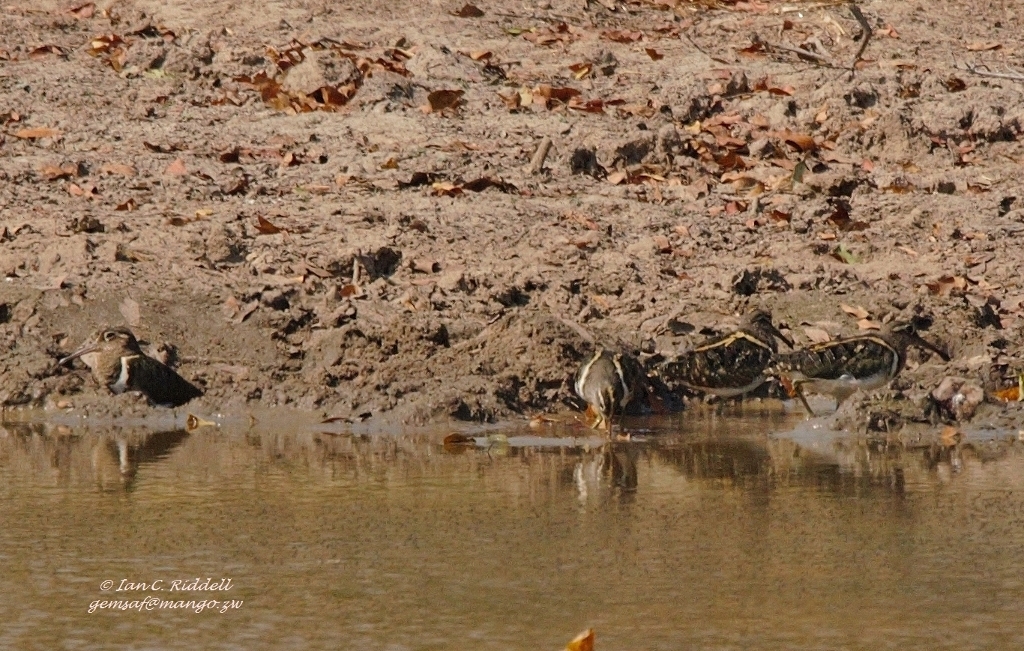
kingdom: Animalia
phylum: Chordata
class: Aves
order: Charadriiformes
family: Rostratulidae
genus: Rostratula
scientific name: Rostratula benghalensis
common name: Greater painted-snipe
